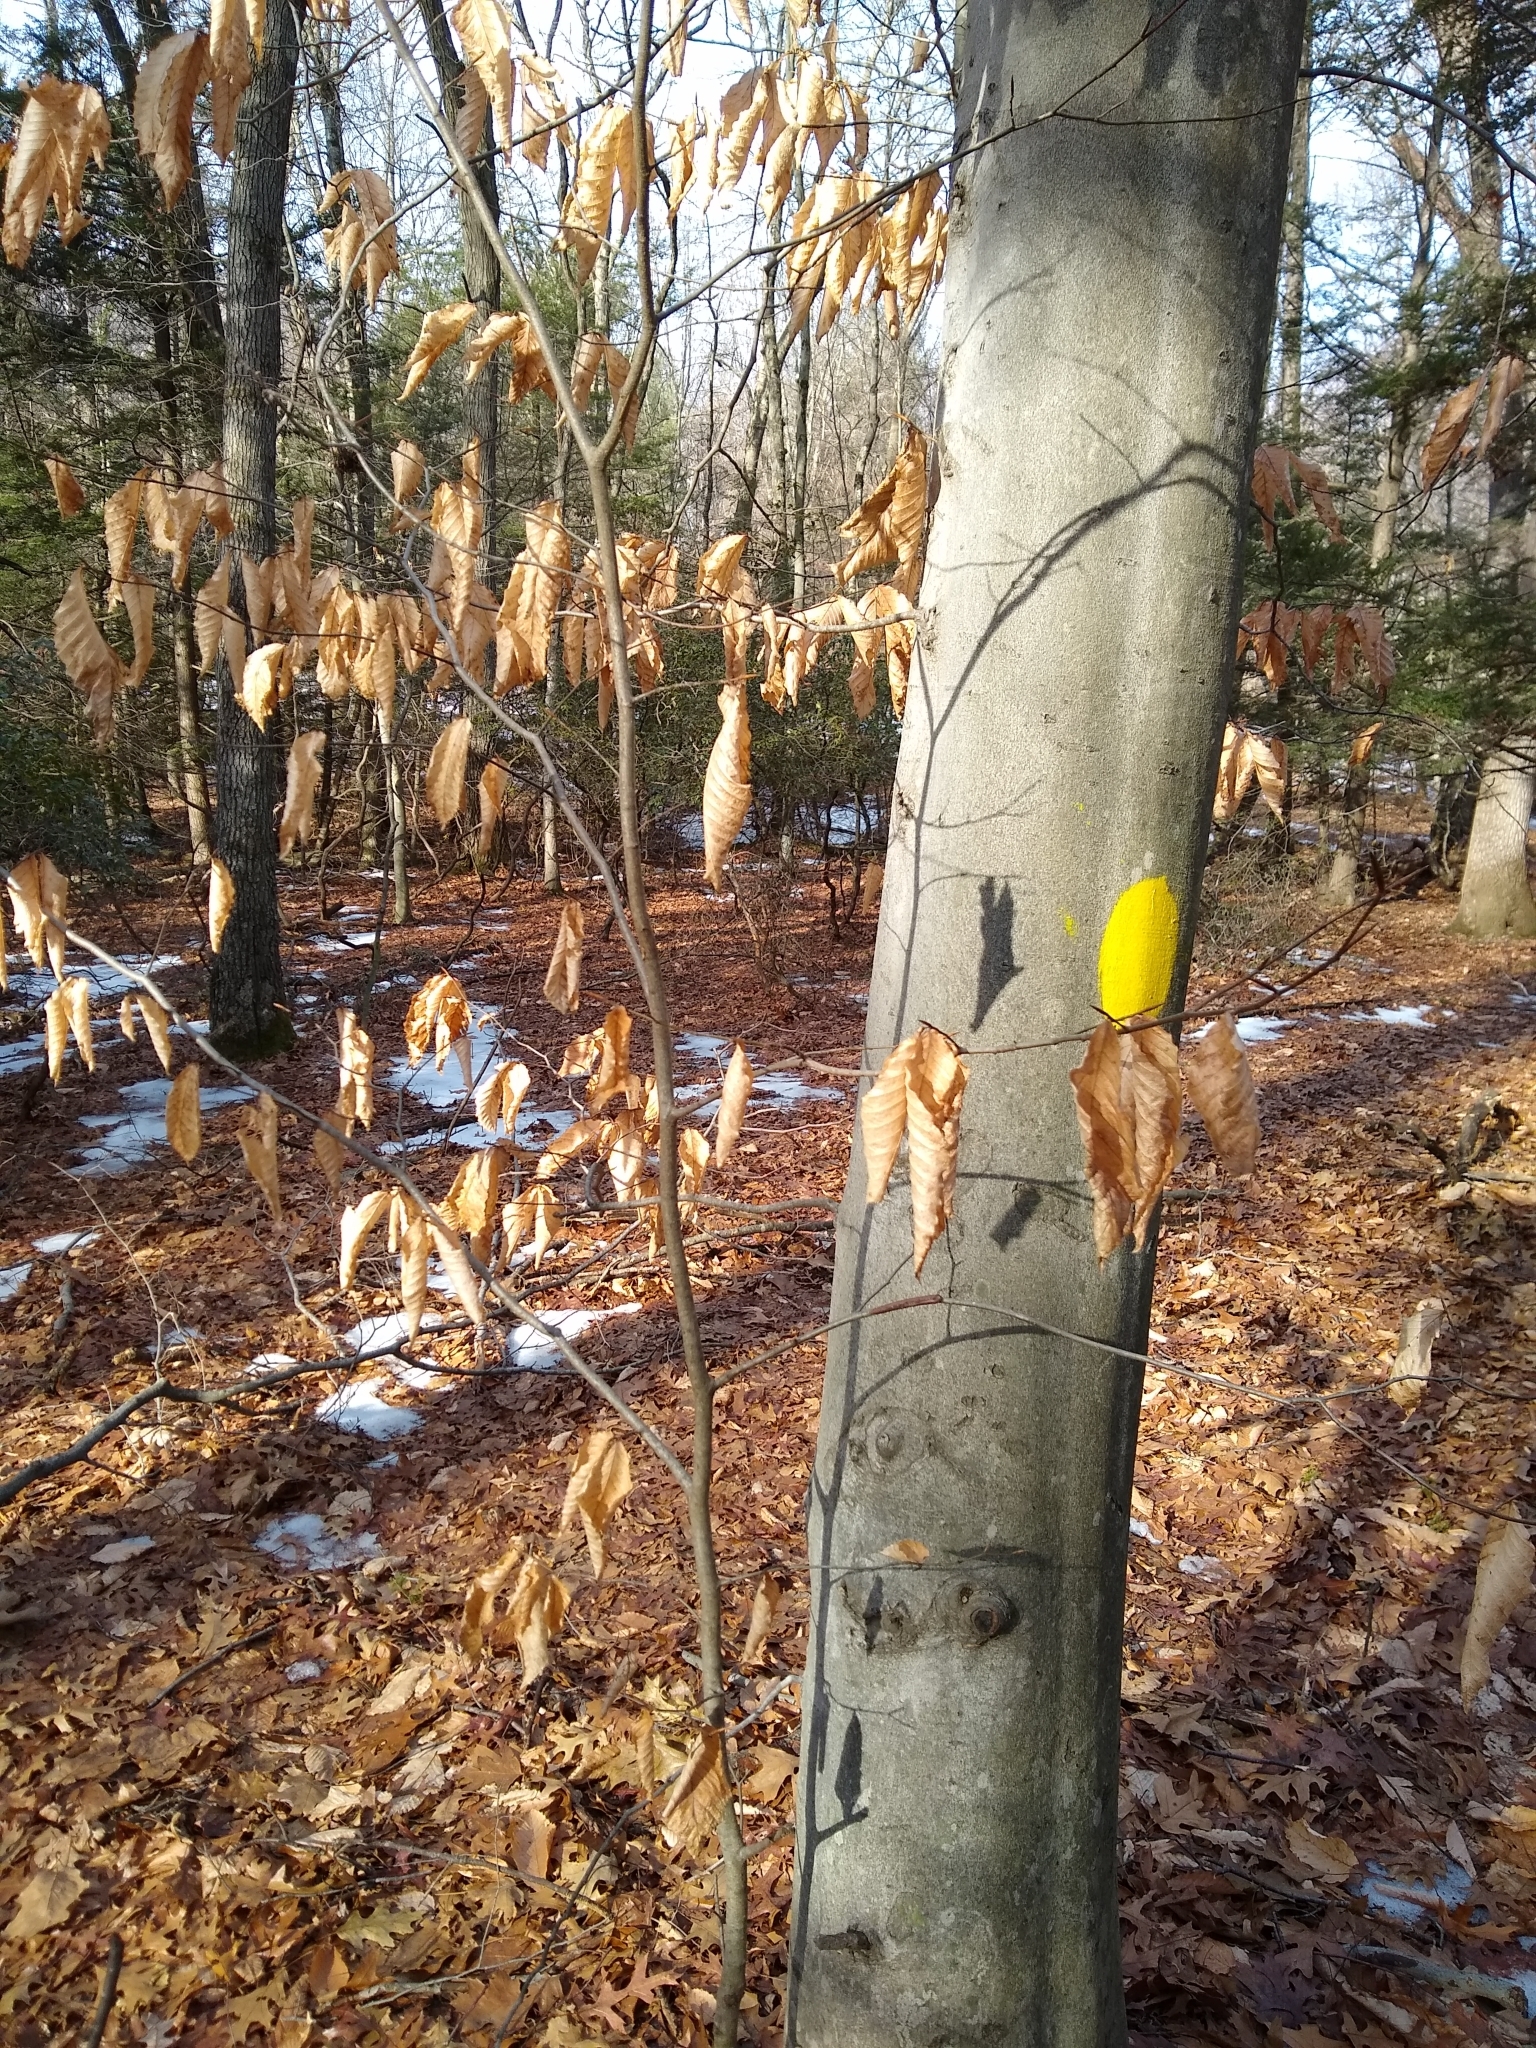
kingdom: Plantae
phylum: Tracheophyta
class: Magnoliopsida
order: Fagales
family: Fagaceae
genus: Fagus
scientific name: Fagus grandifolia
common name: American beech
